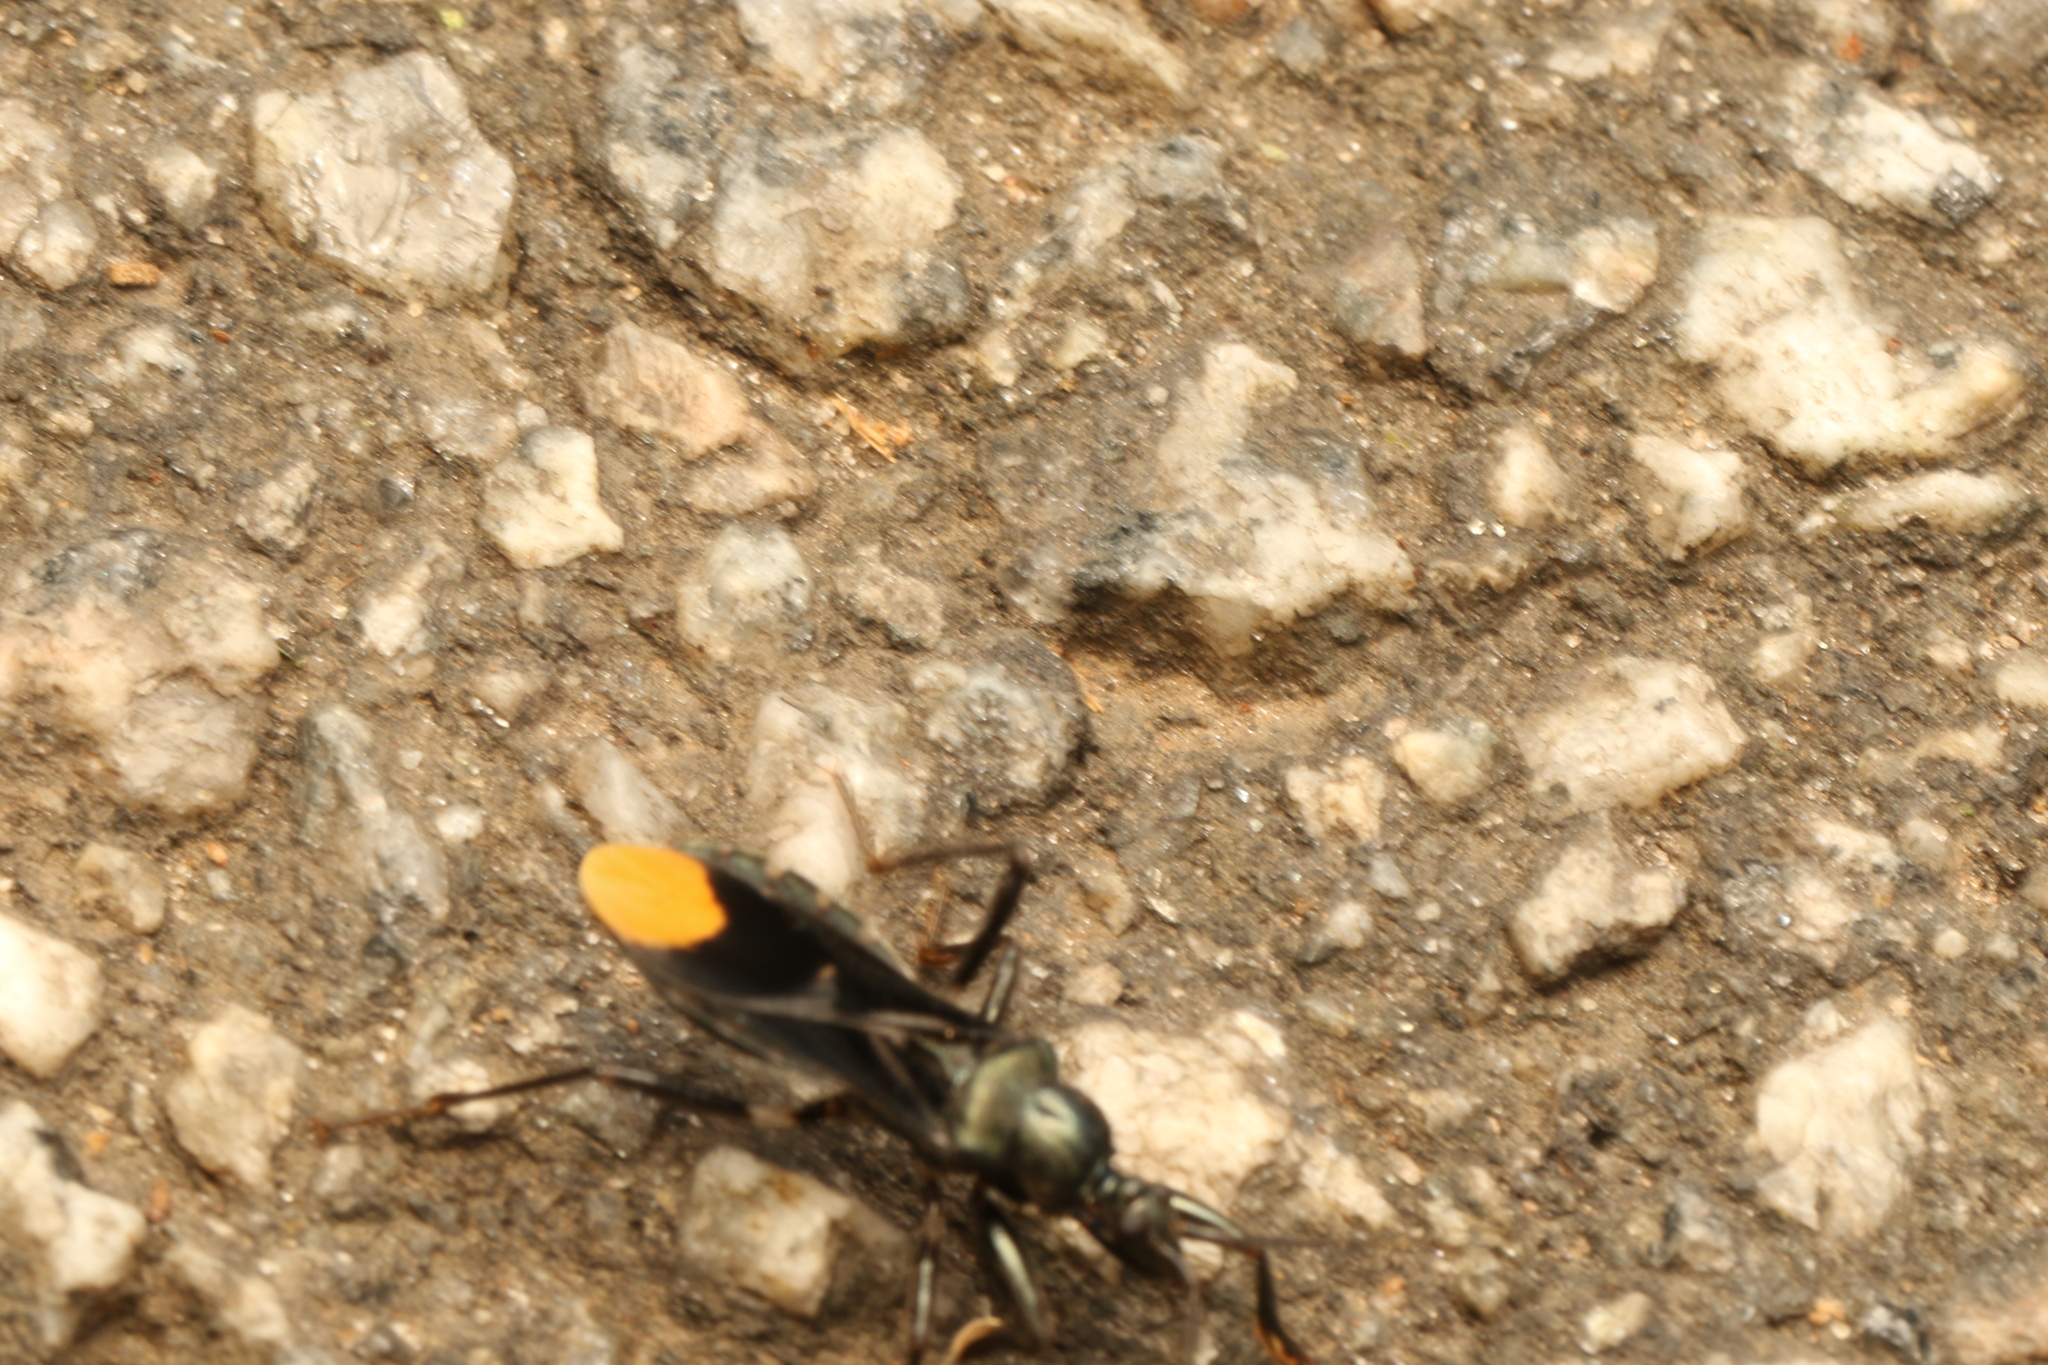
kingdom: Animalia
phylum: Arthropoda
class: Insecta
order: Hemiptera
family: Reduviidae
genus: Zeraikia
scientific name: Zeraikia zeraikae
